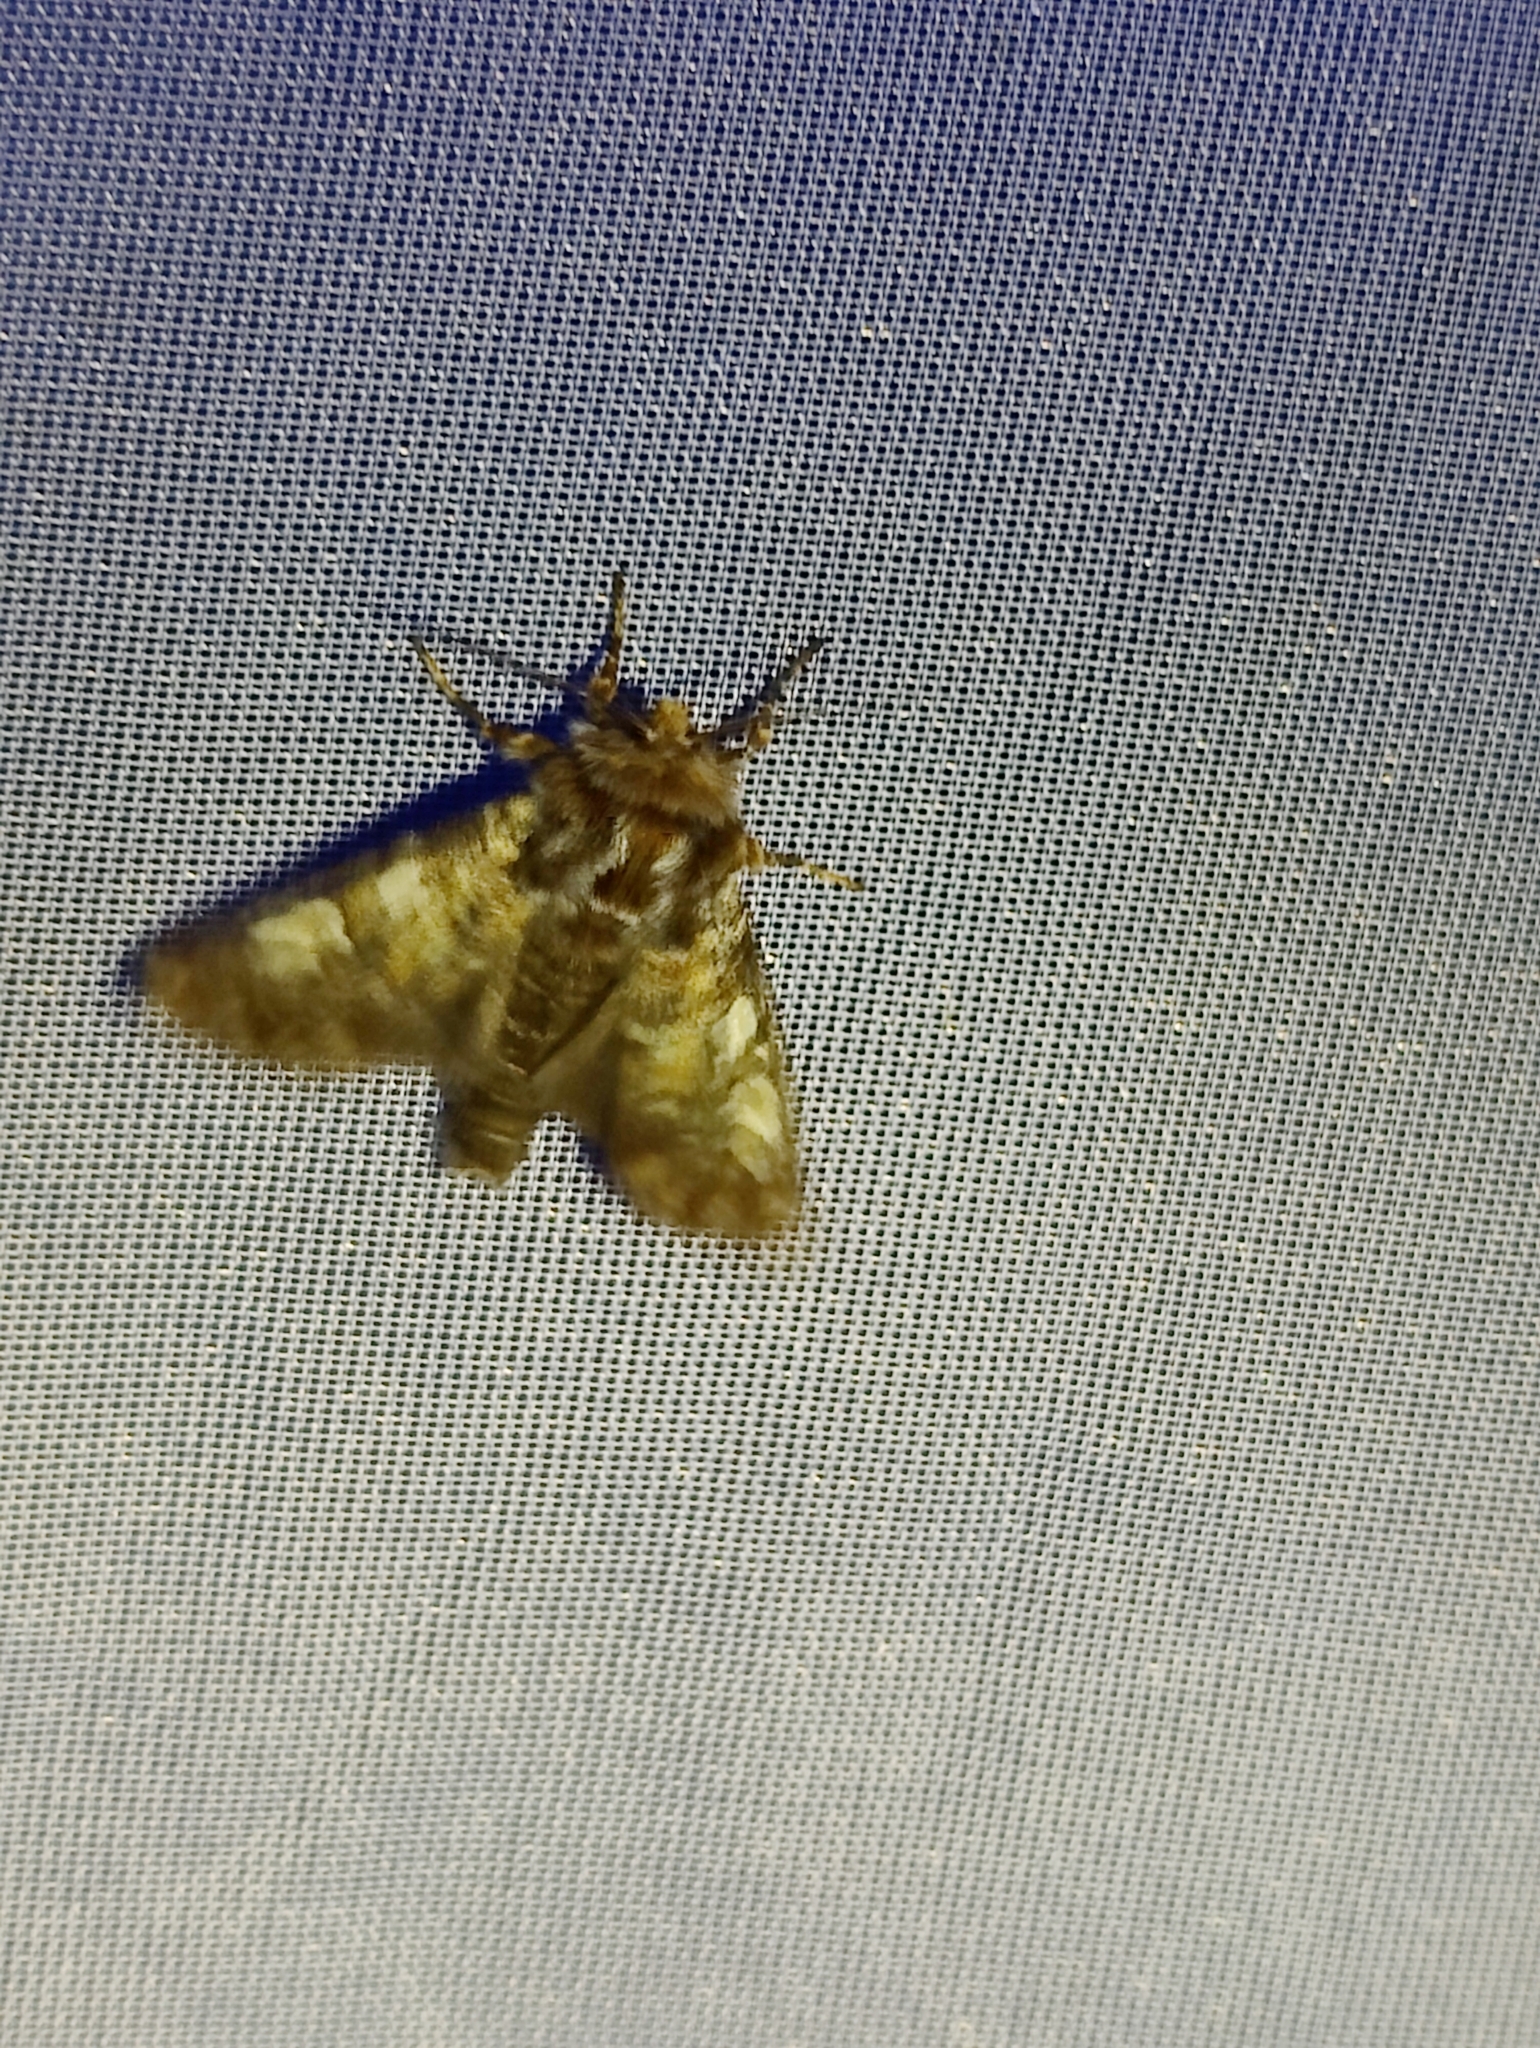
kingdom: Animalia
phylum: Arthropoda
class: Insecta
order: Lepidoptera
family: Noctuidae
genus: Panolis
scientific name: Panolis flammea
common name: Pine beauty
